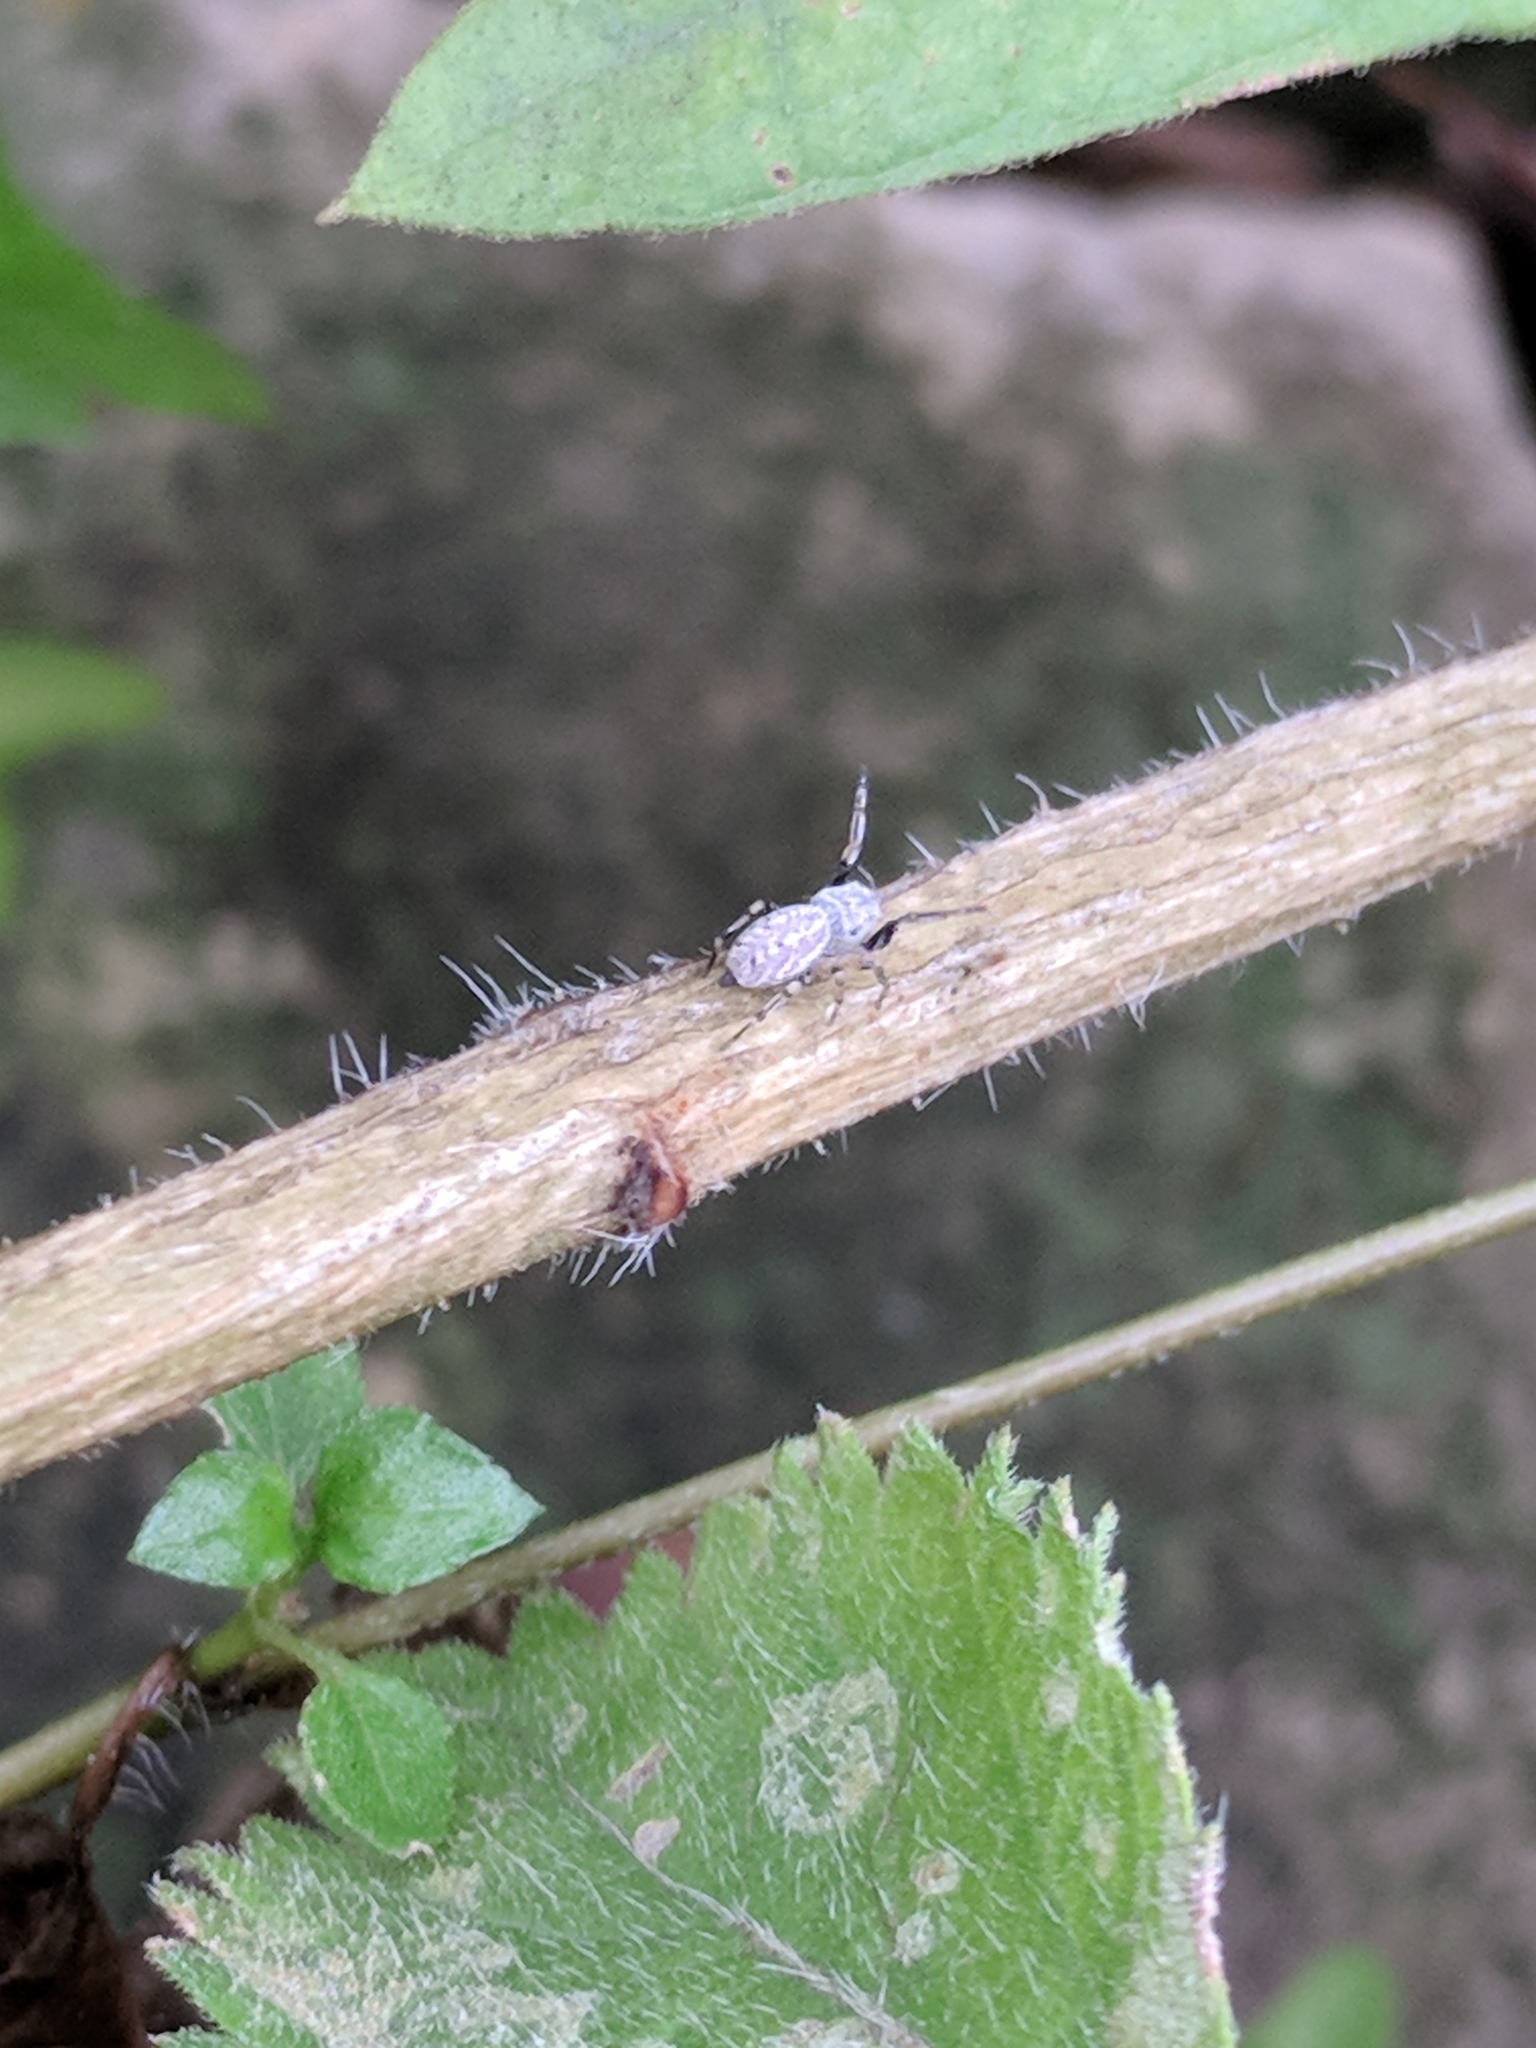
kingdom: Animalia
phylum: Arthropoda
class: Arachnida
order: Araneae
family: Salticidae
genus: Zygoballus
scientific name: Zygoballus rufipes
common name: Jumping spiders
